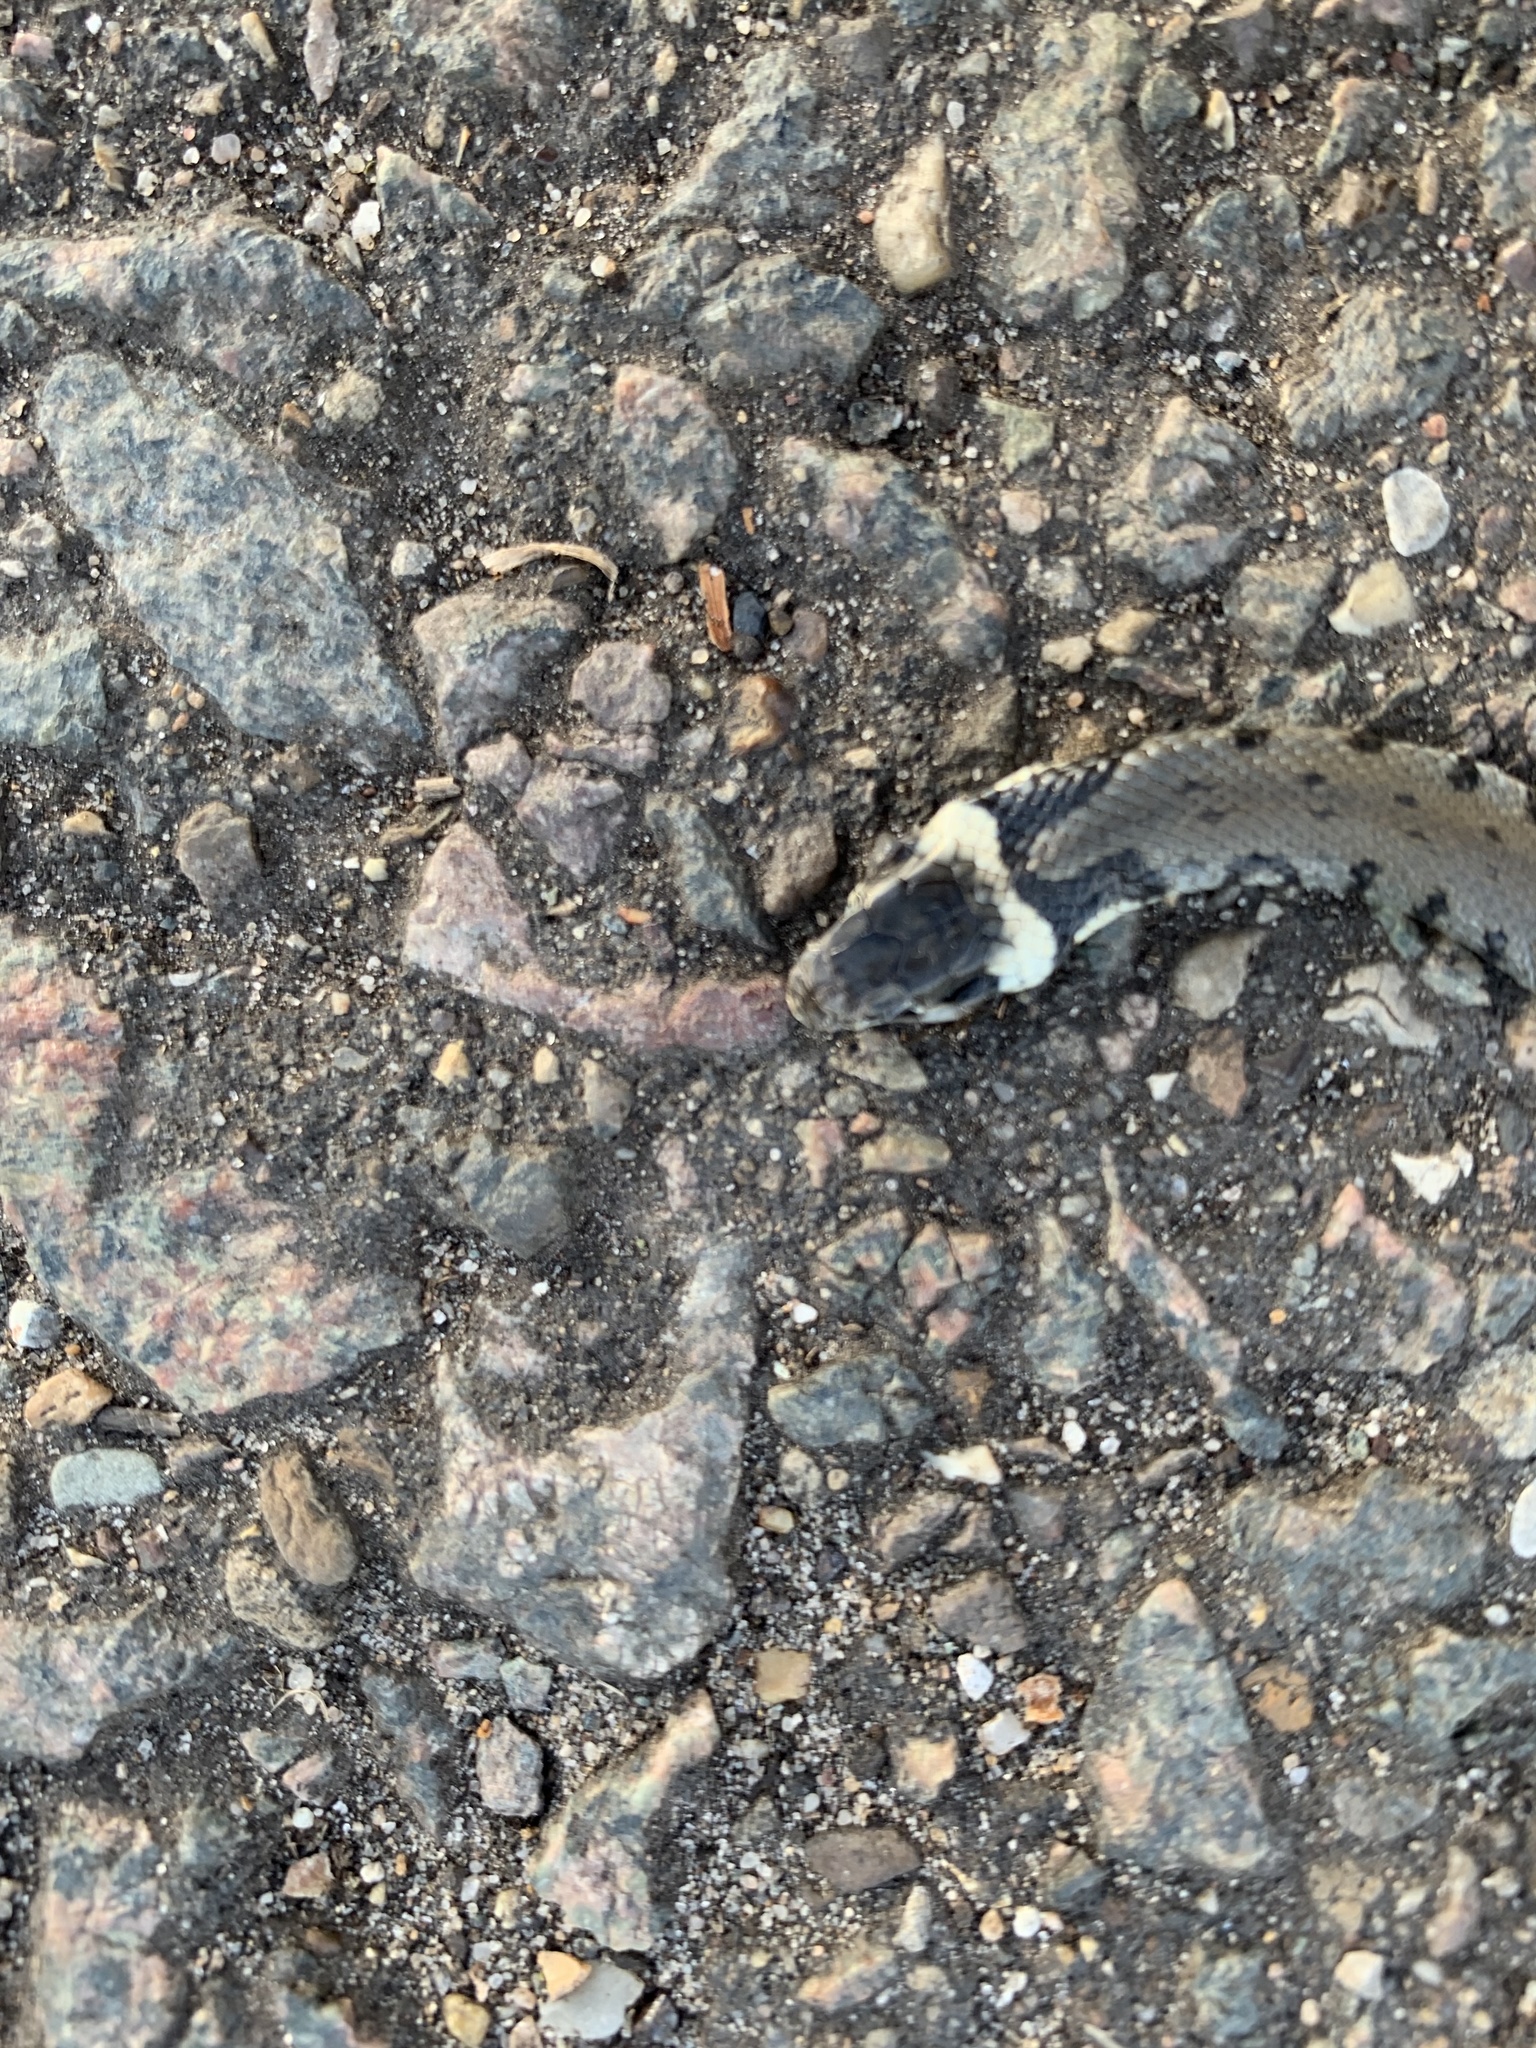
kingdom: Animalia
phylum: Chordata
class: Squamata
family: Colubridae
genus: Natrix
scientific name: Natrix helvetica
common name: Banded grass snake
